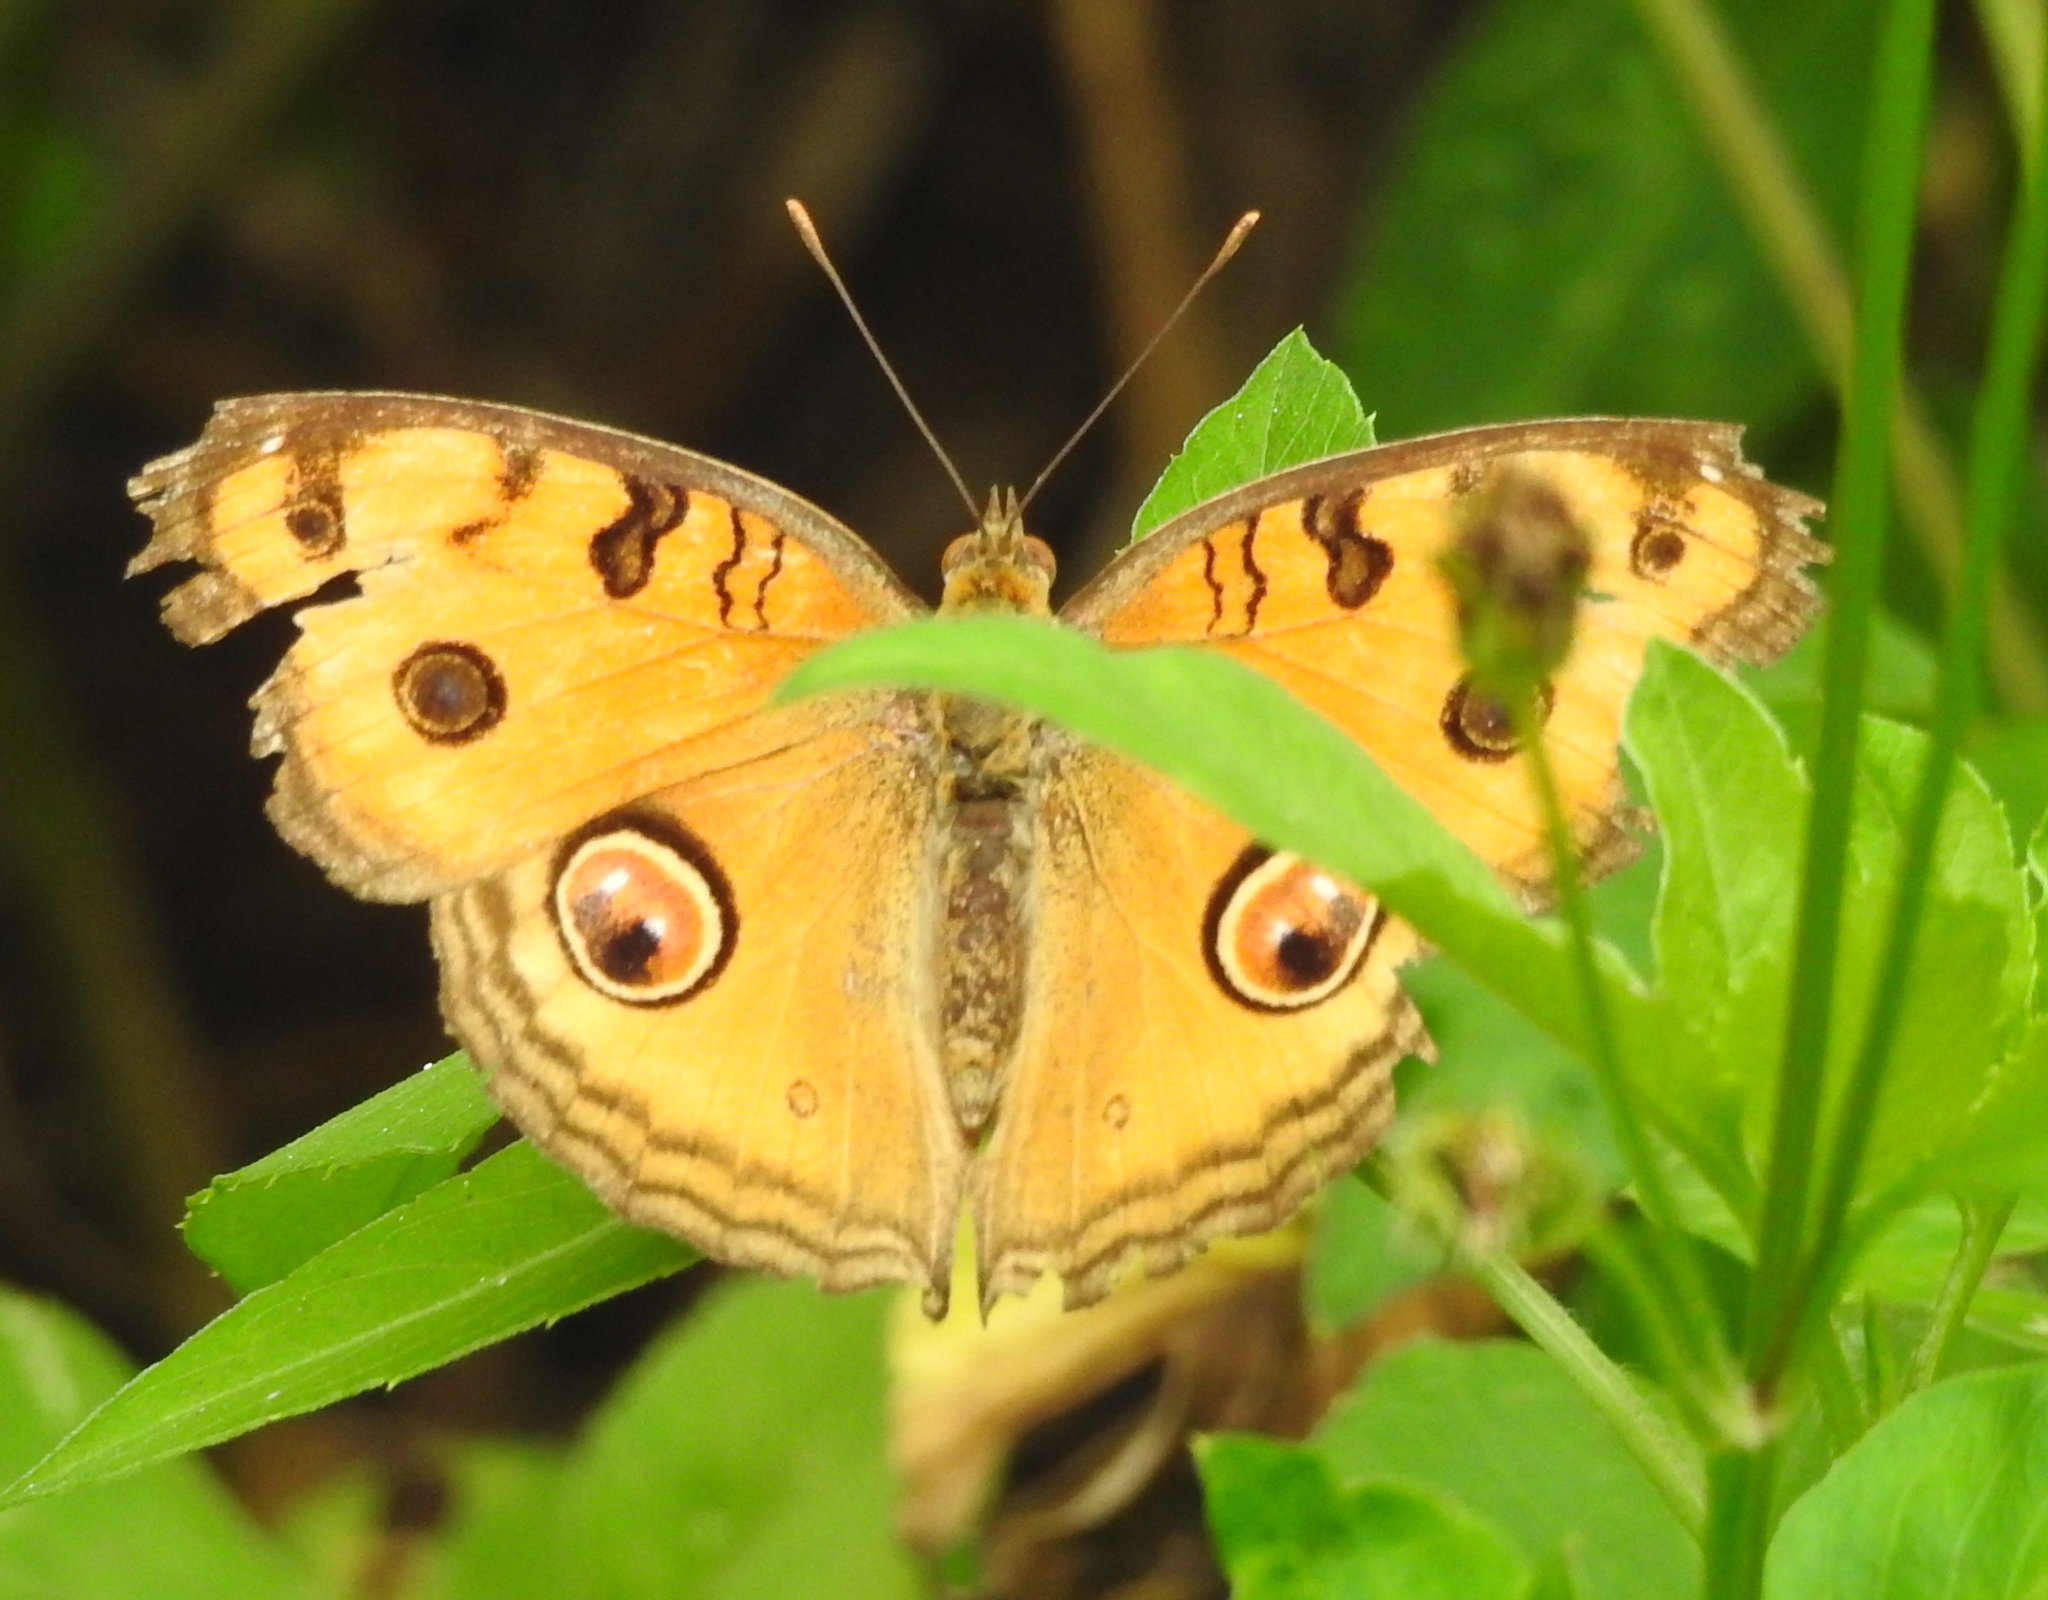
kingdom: Animalia
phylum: Arthropoda
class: Insecta
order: Lepidoptera
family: Nymphalidae
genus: Junonia
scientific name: Junonia almana
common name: Peacock pansy
